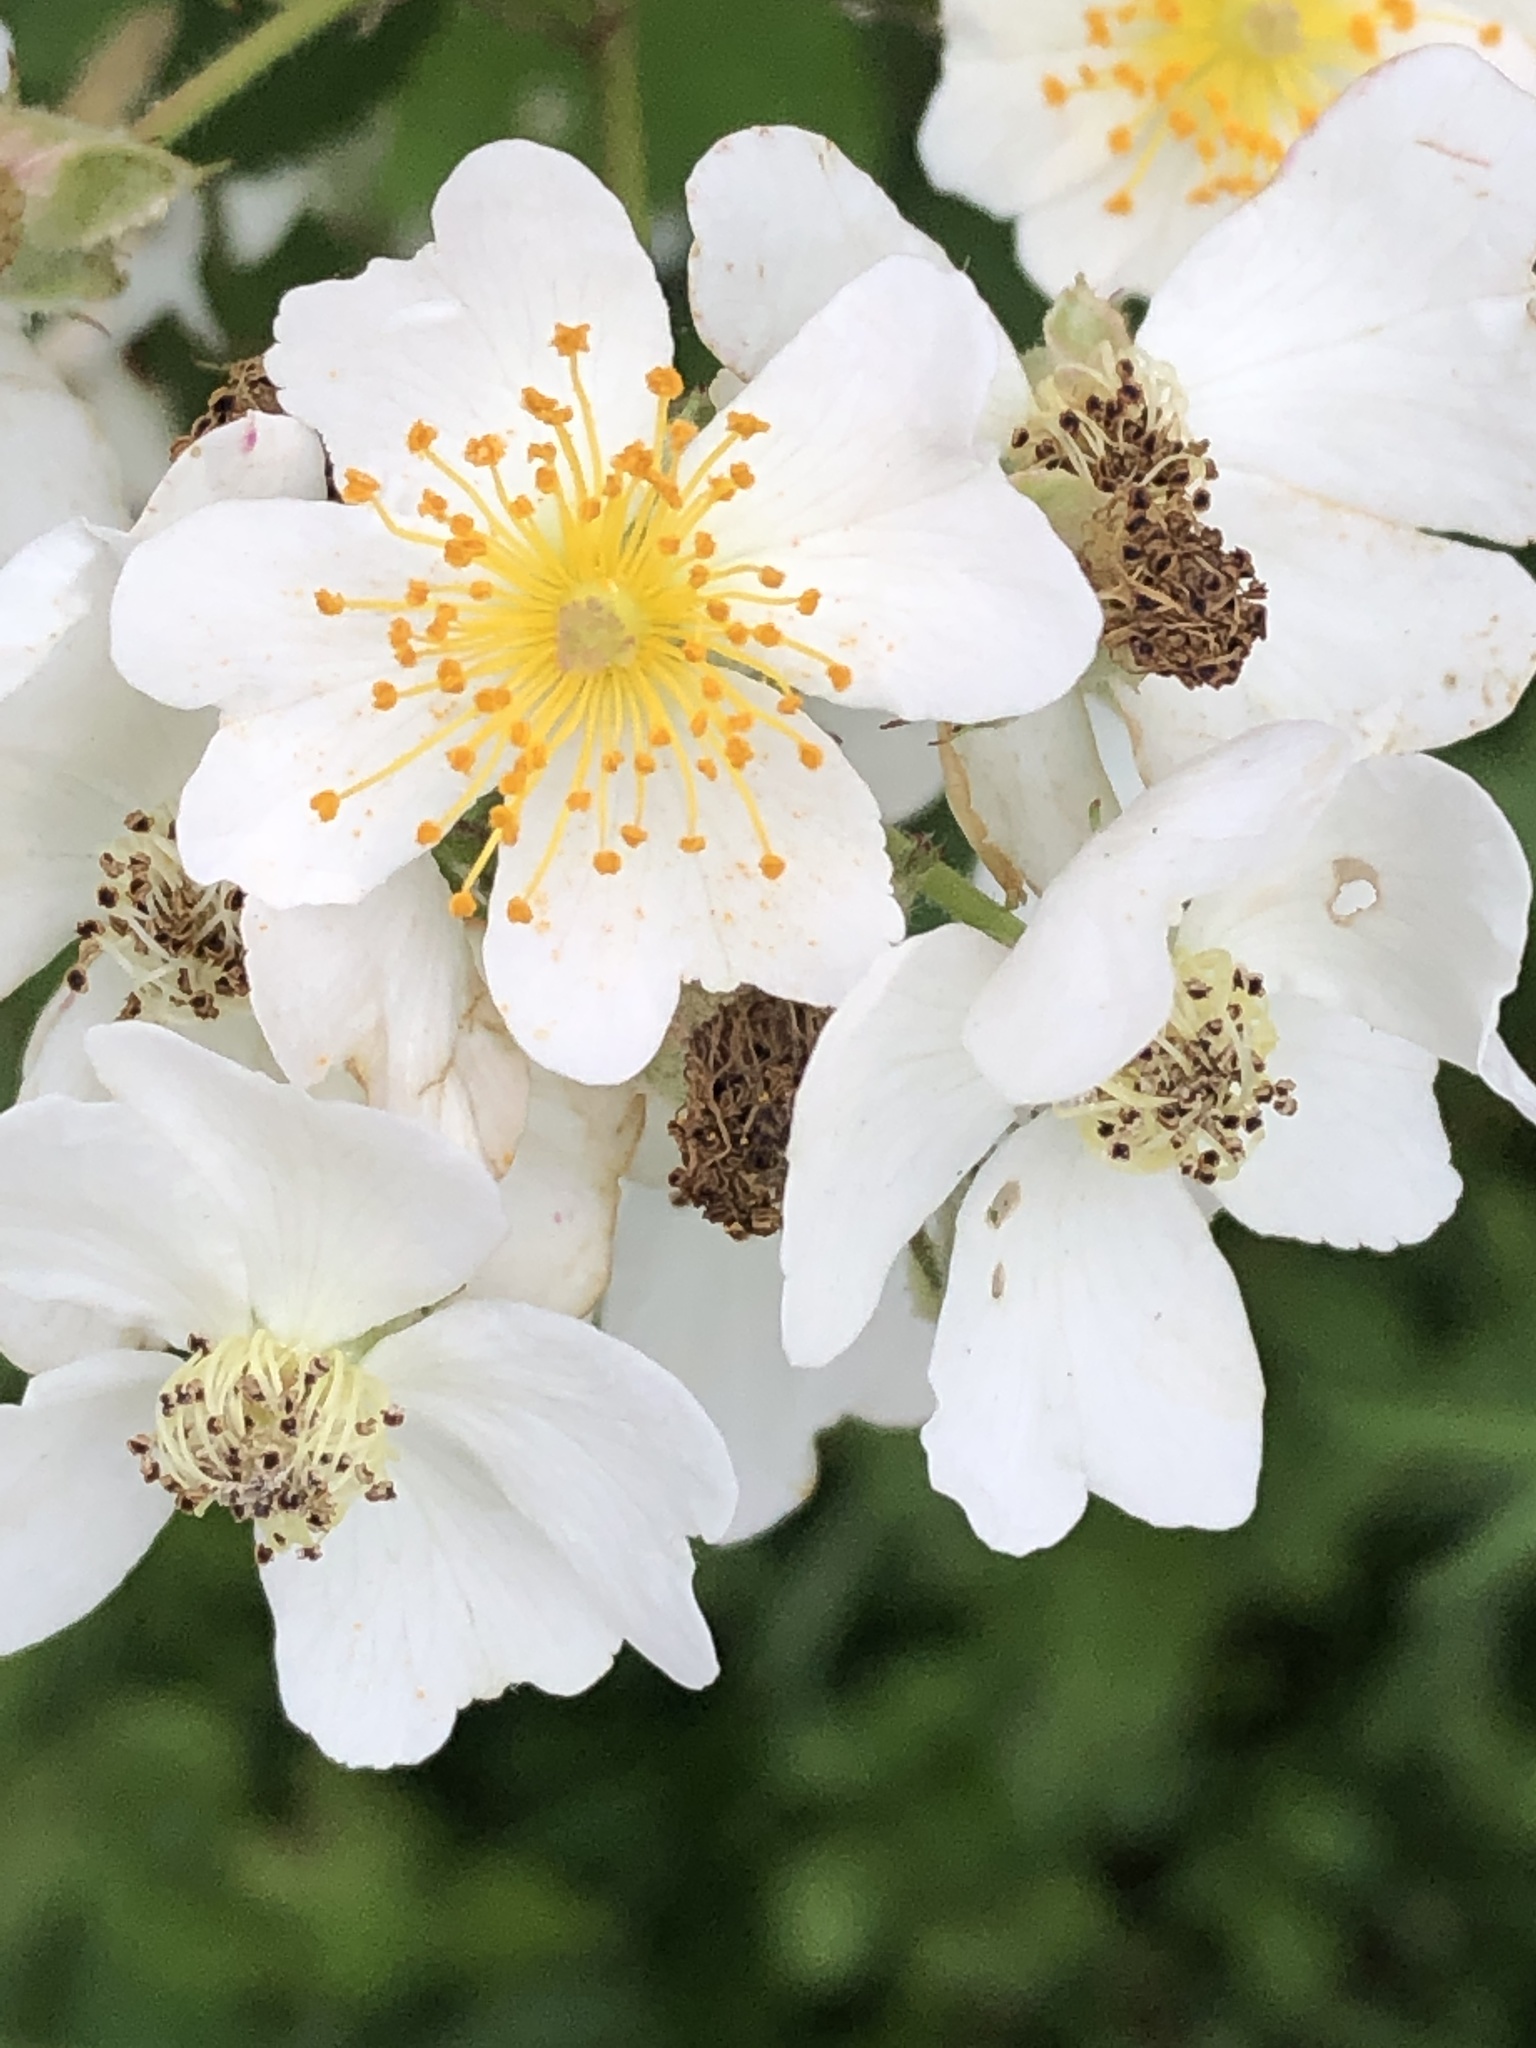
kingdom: Plantae
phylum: Tracheophyta
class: Magnoliopsida
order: Rosales
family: Rosaceae
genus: Rosa
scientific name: Rosa multiflora
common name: Multiflora rose
